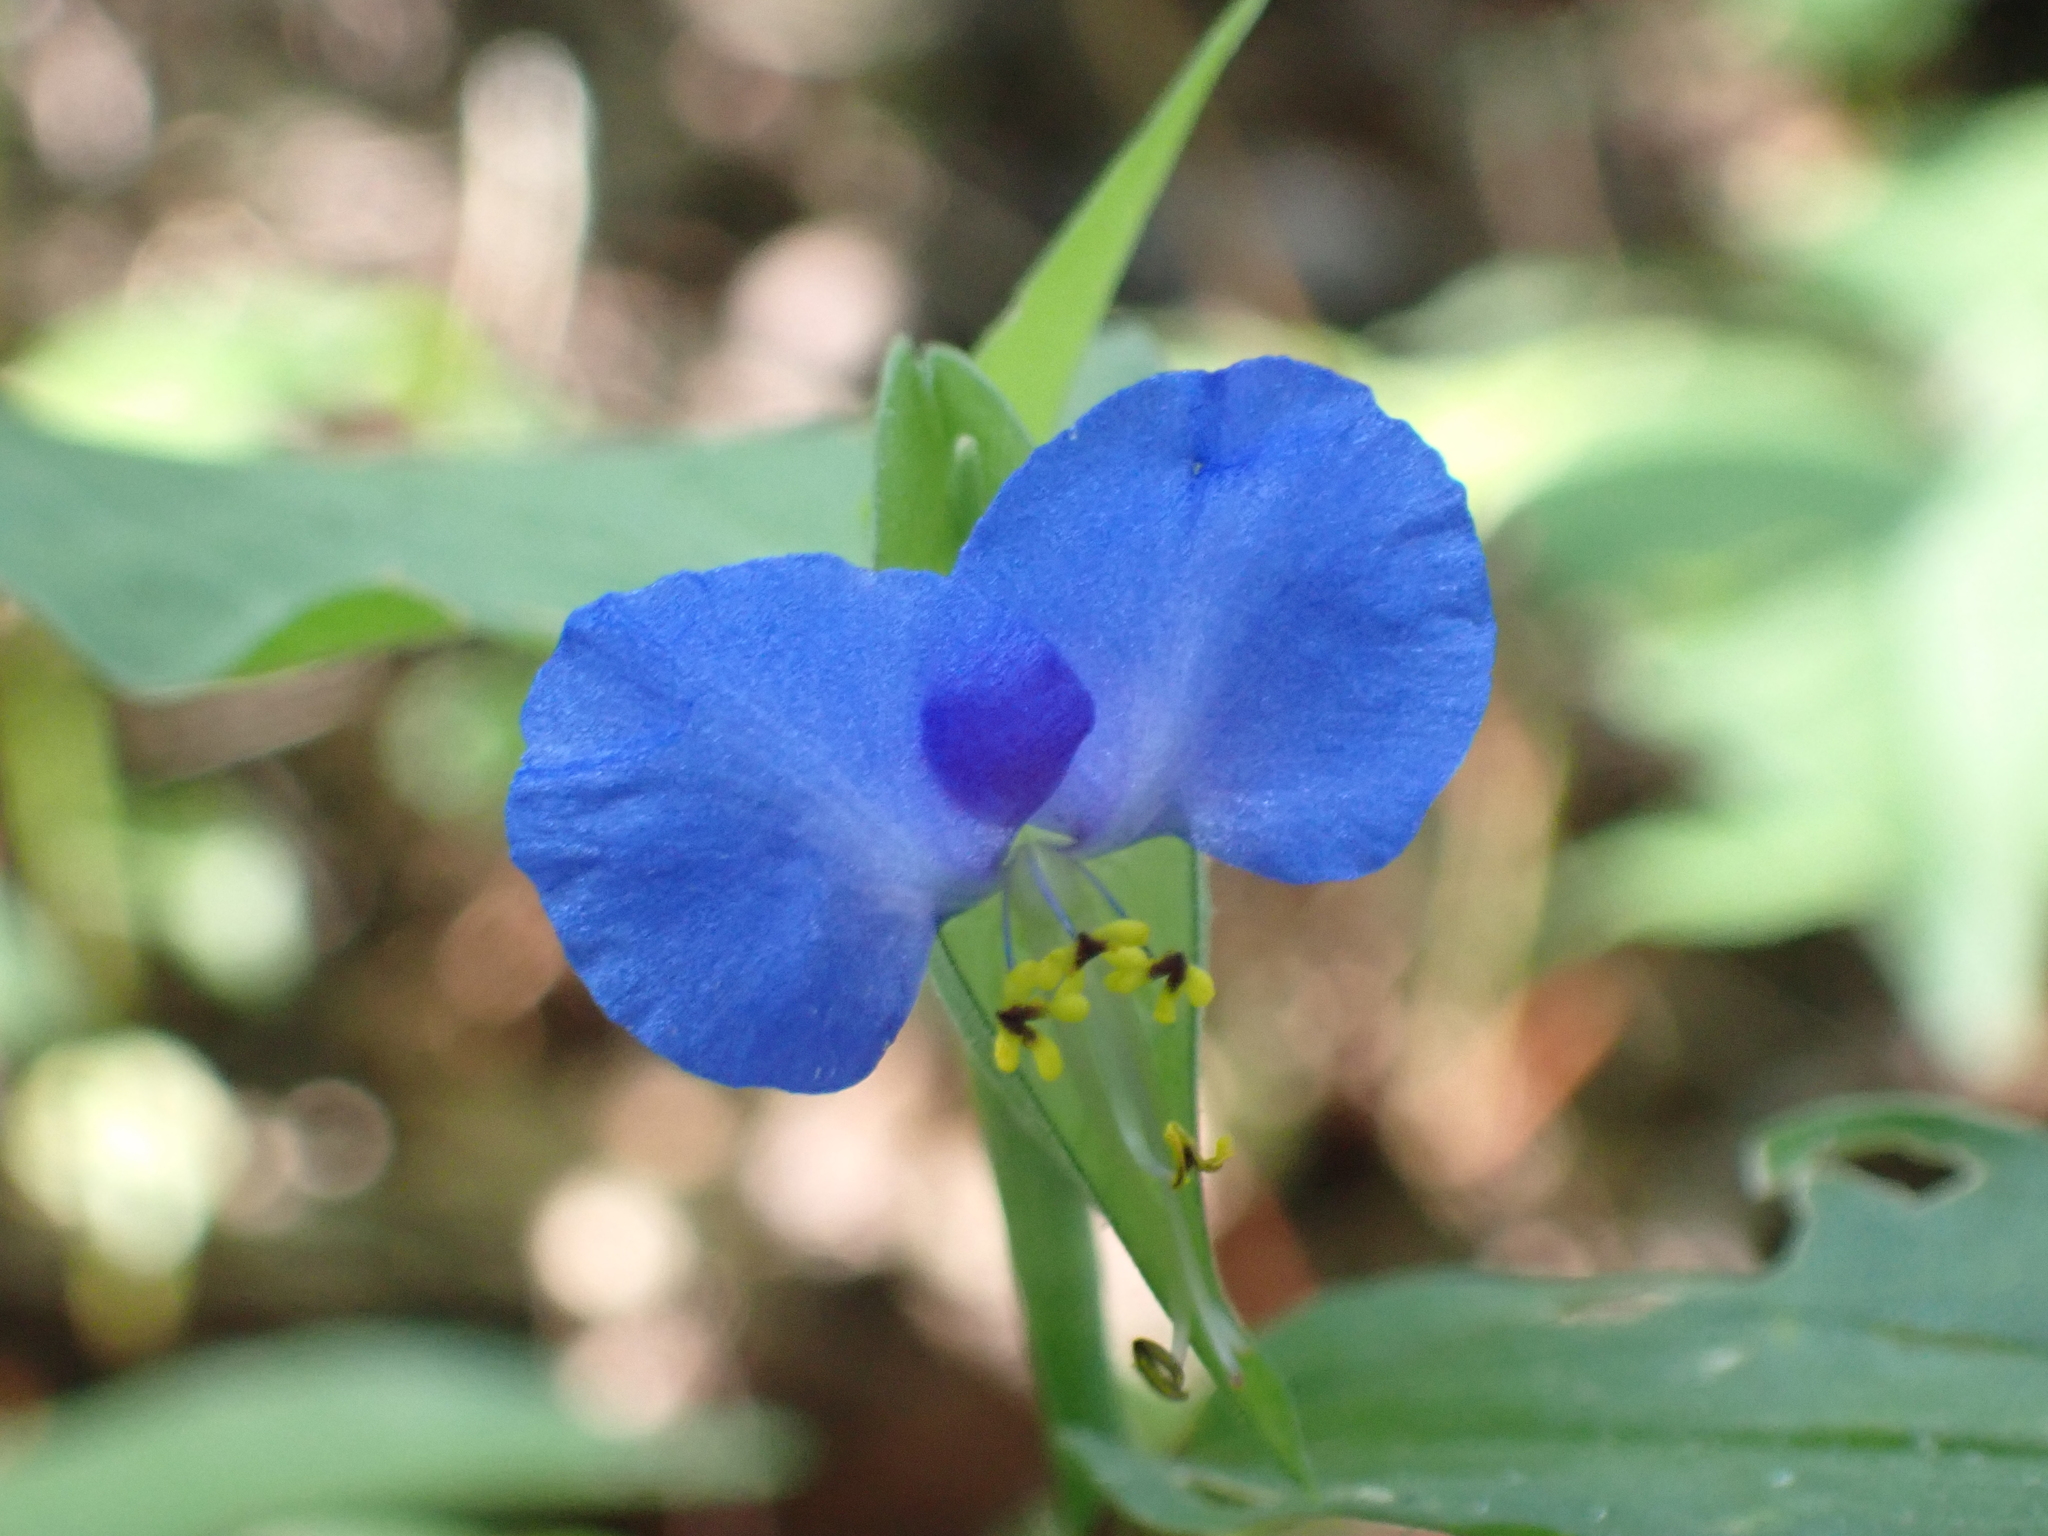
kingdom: Plantae
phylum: Tracheophyta
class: Liliopsida
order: Commelinales
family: Commelinaceae
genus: Commelina
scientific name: Commelina communis
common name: Asiatic dayflower
